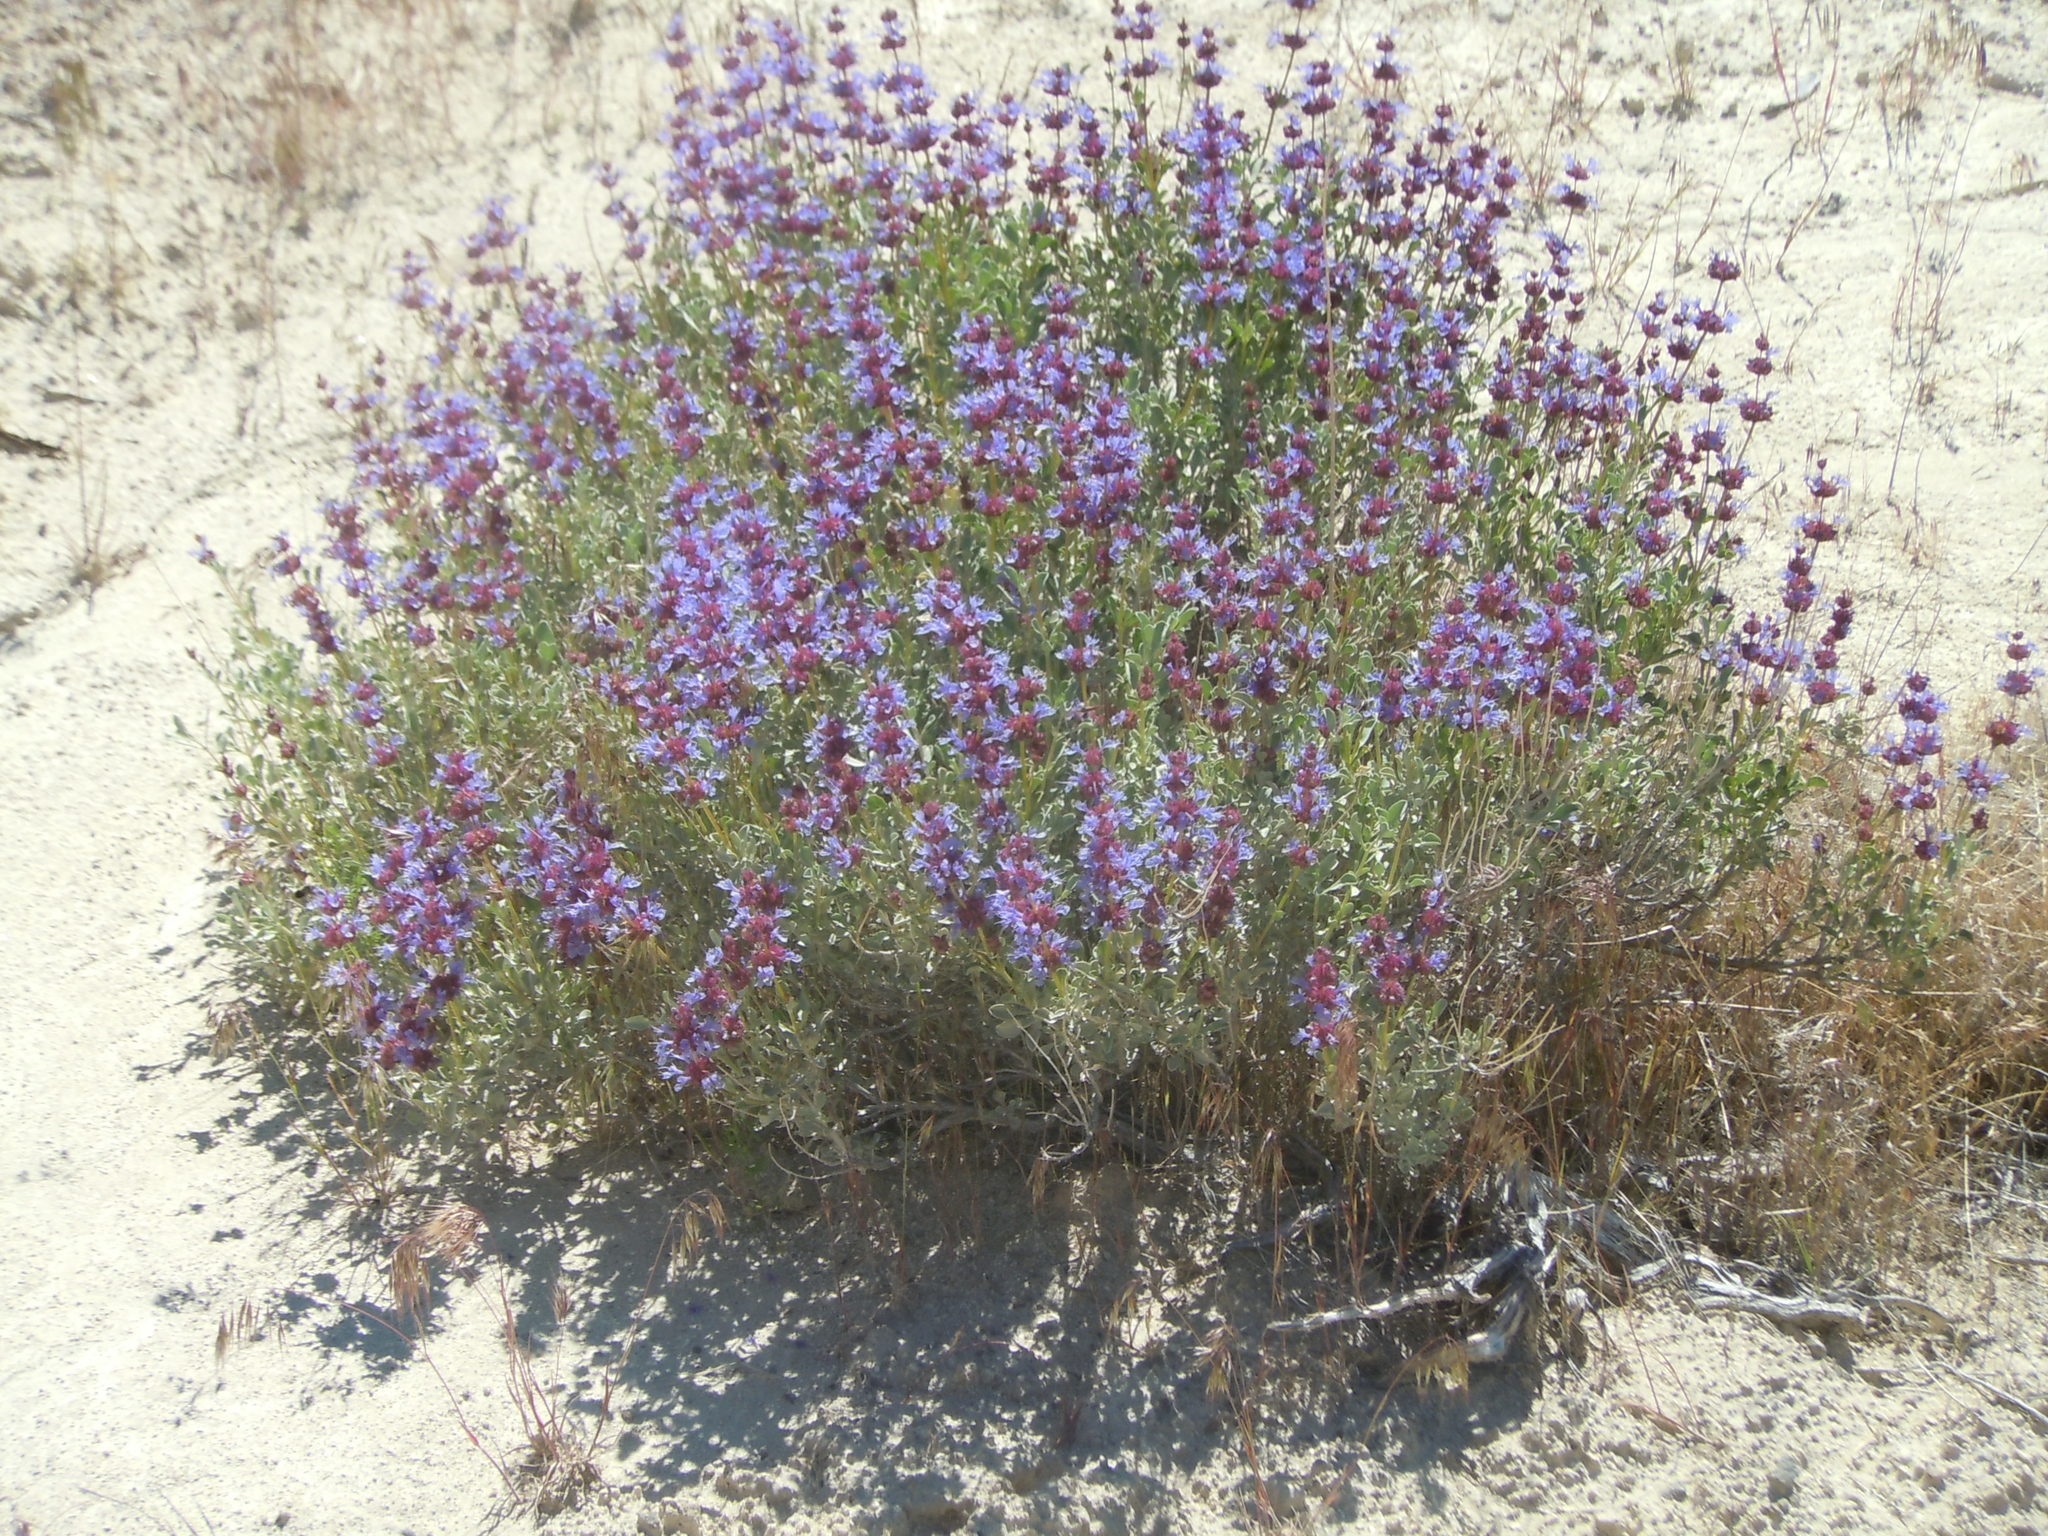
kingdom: Plantae
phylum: Tracheophyta
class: Magnoliopsida
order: Lamiales
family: Lamiaceae
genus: Salvia
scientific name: Salvia dorrii
